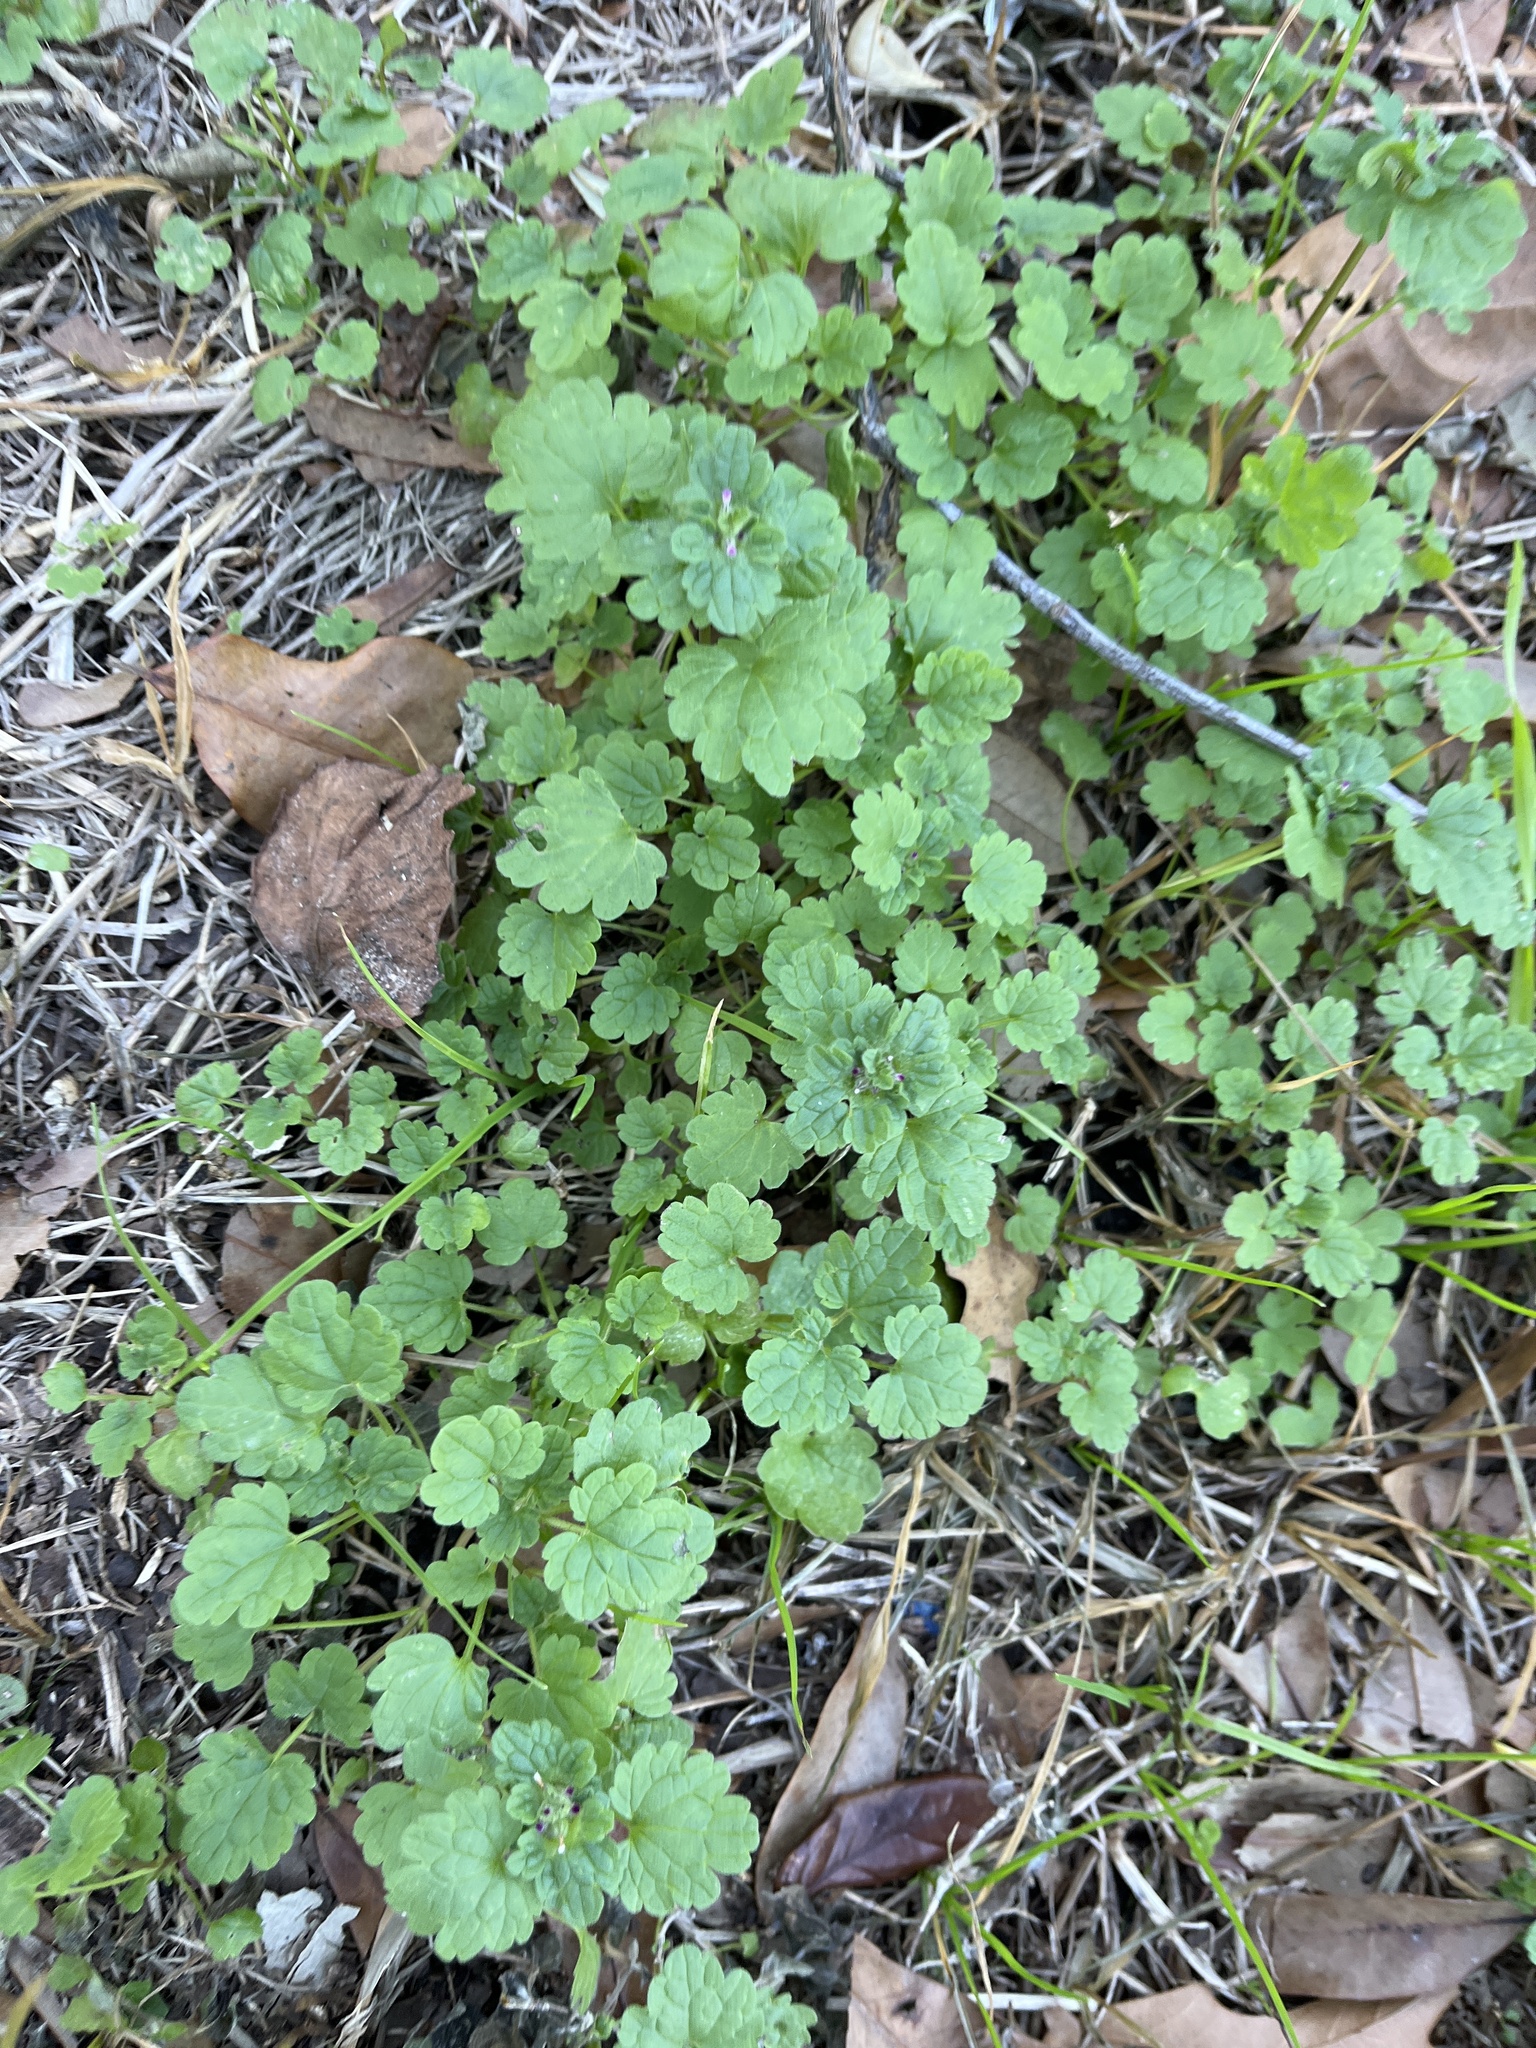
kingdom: Plantae
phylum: Tracheophyta
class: Magnoliopsida
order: Lamiales
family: Lamiaceae
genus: Lamium
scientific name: Lamium amplexicaule
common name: Henbit dead-nettle
